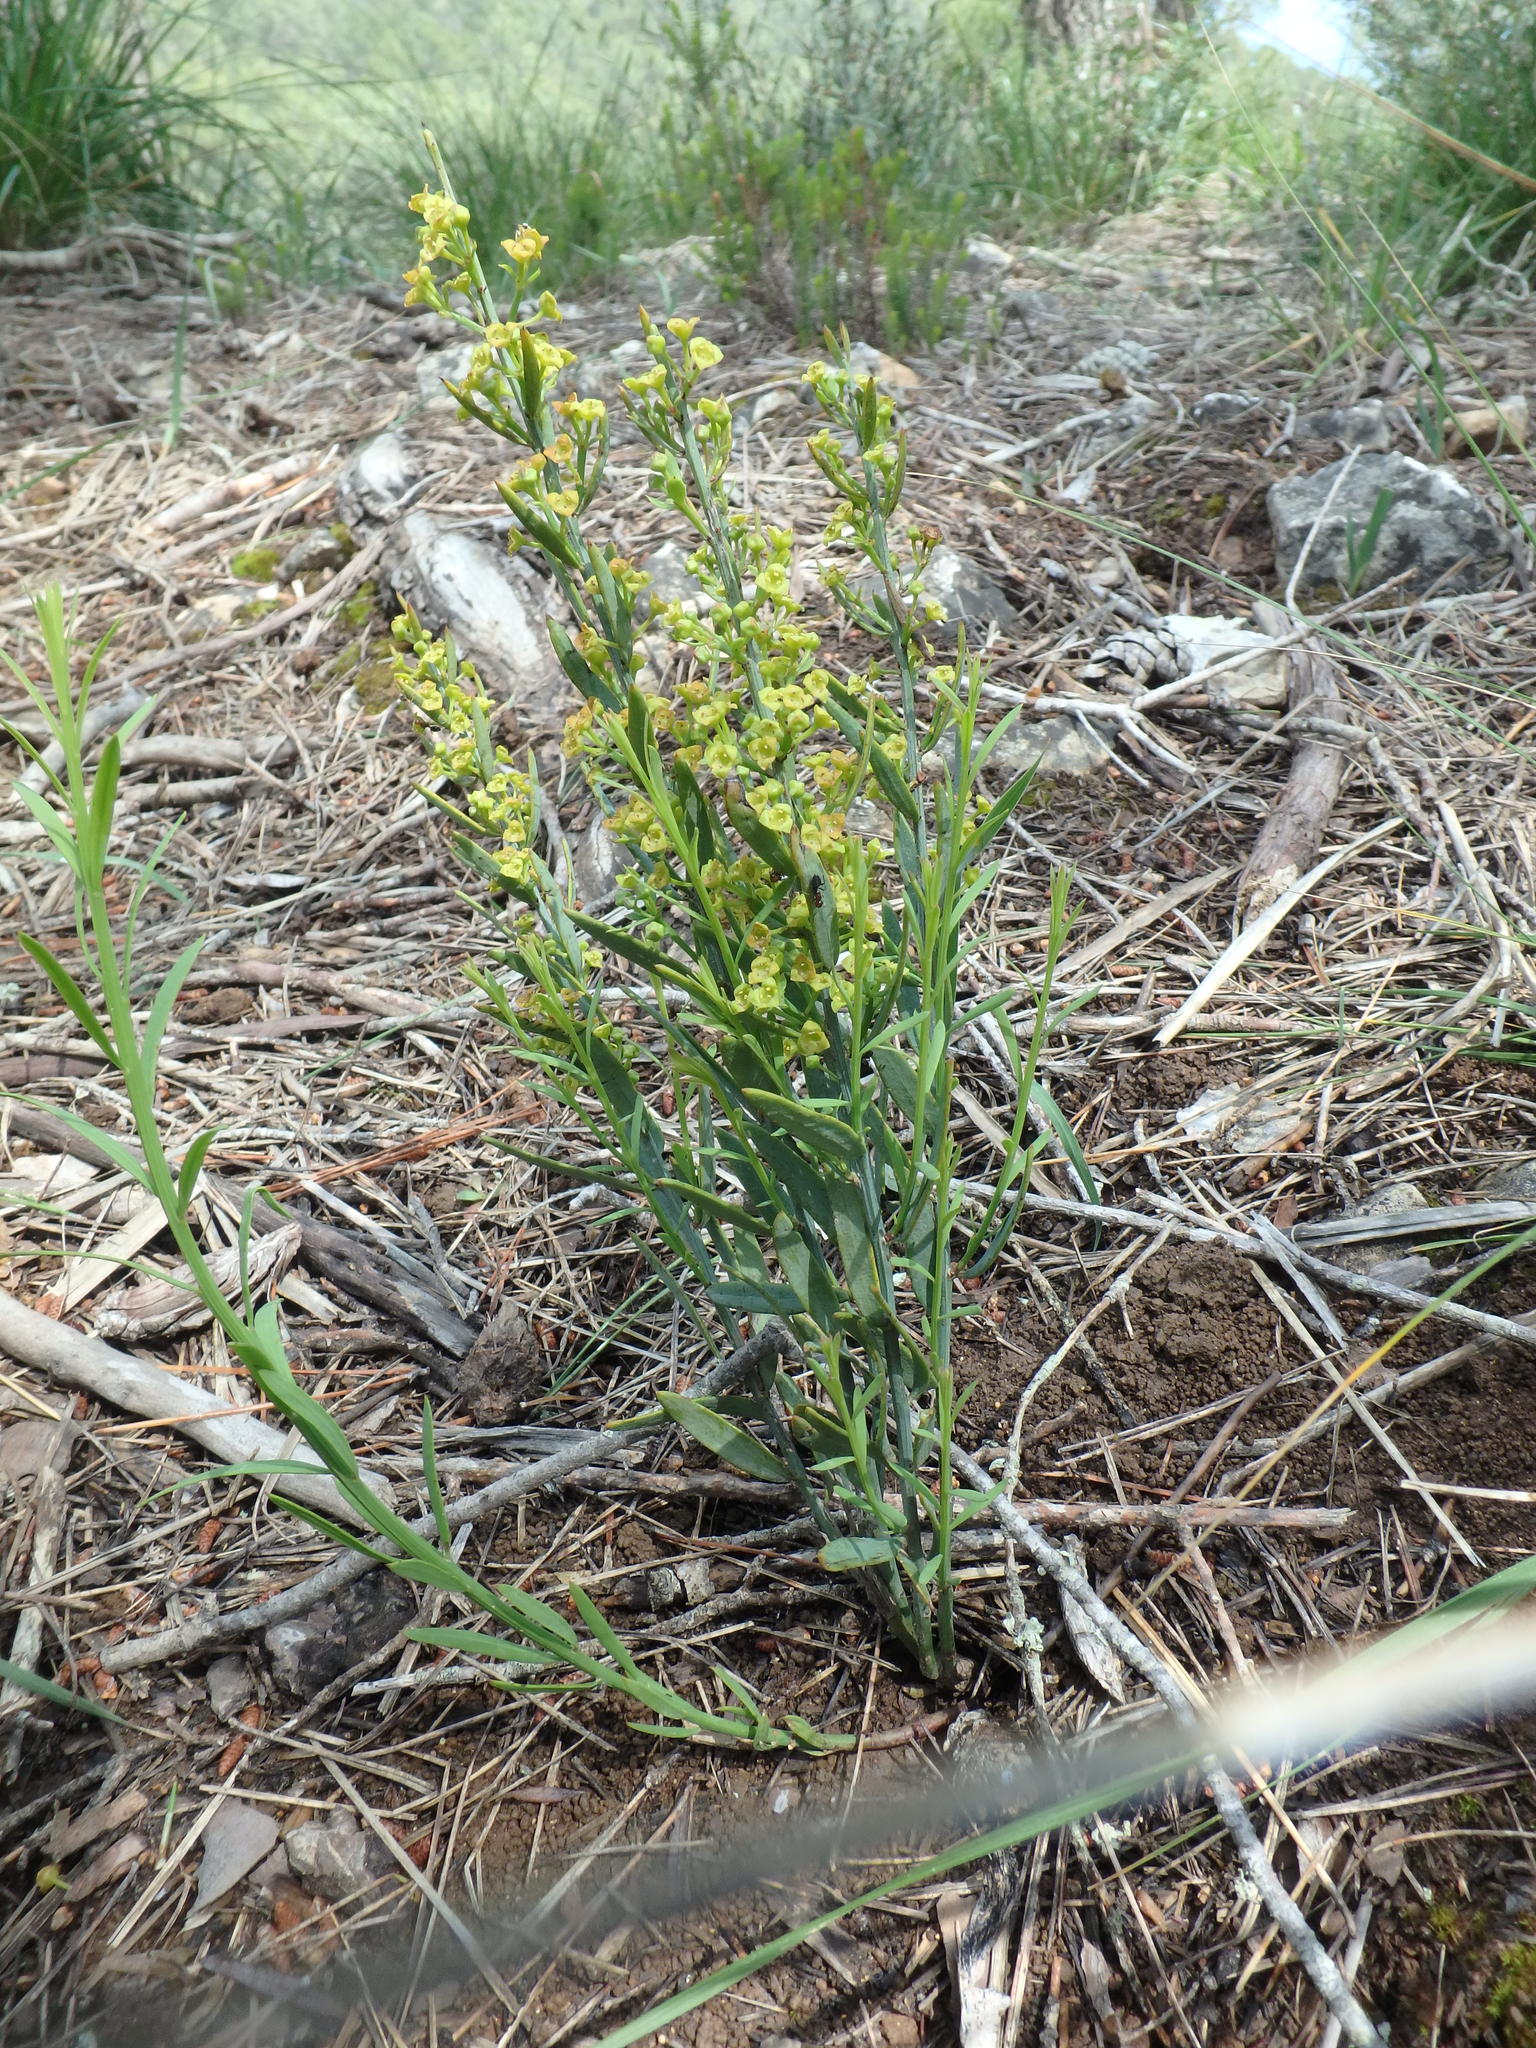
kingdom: Plantae
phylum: Tracheophyta
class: Magnoliopsida
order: Santalales
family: Santalaceae
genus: Osyris
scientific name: Osyris alba
